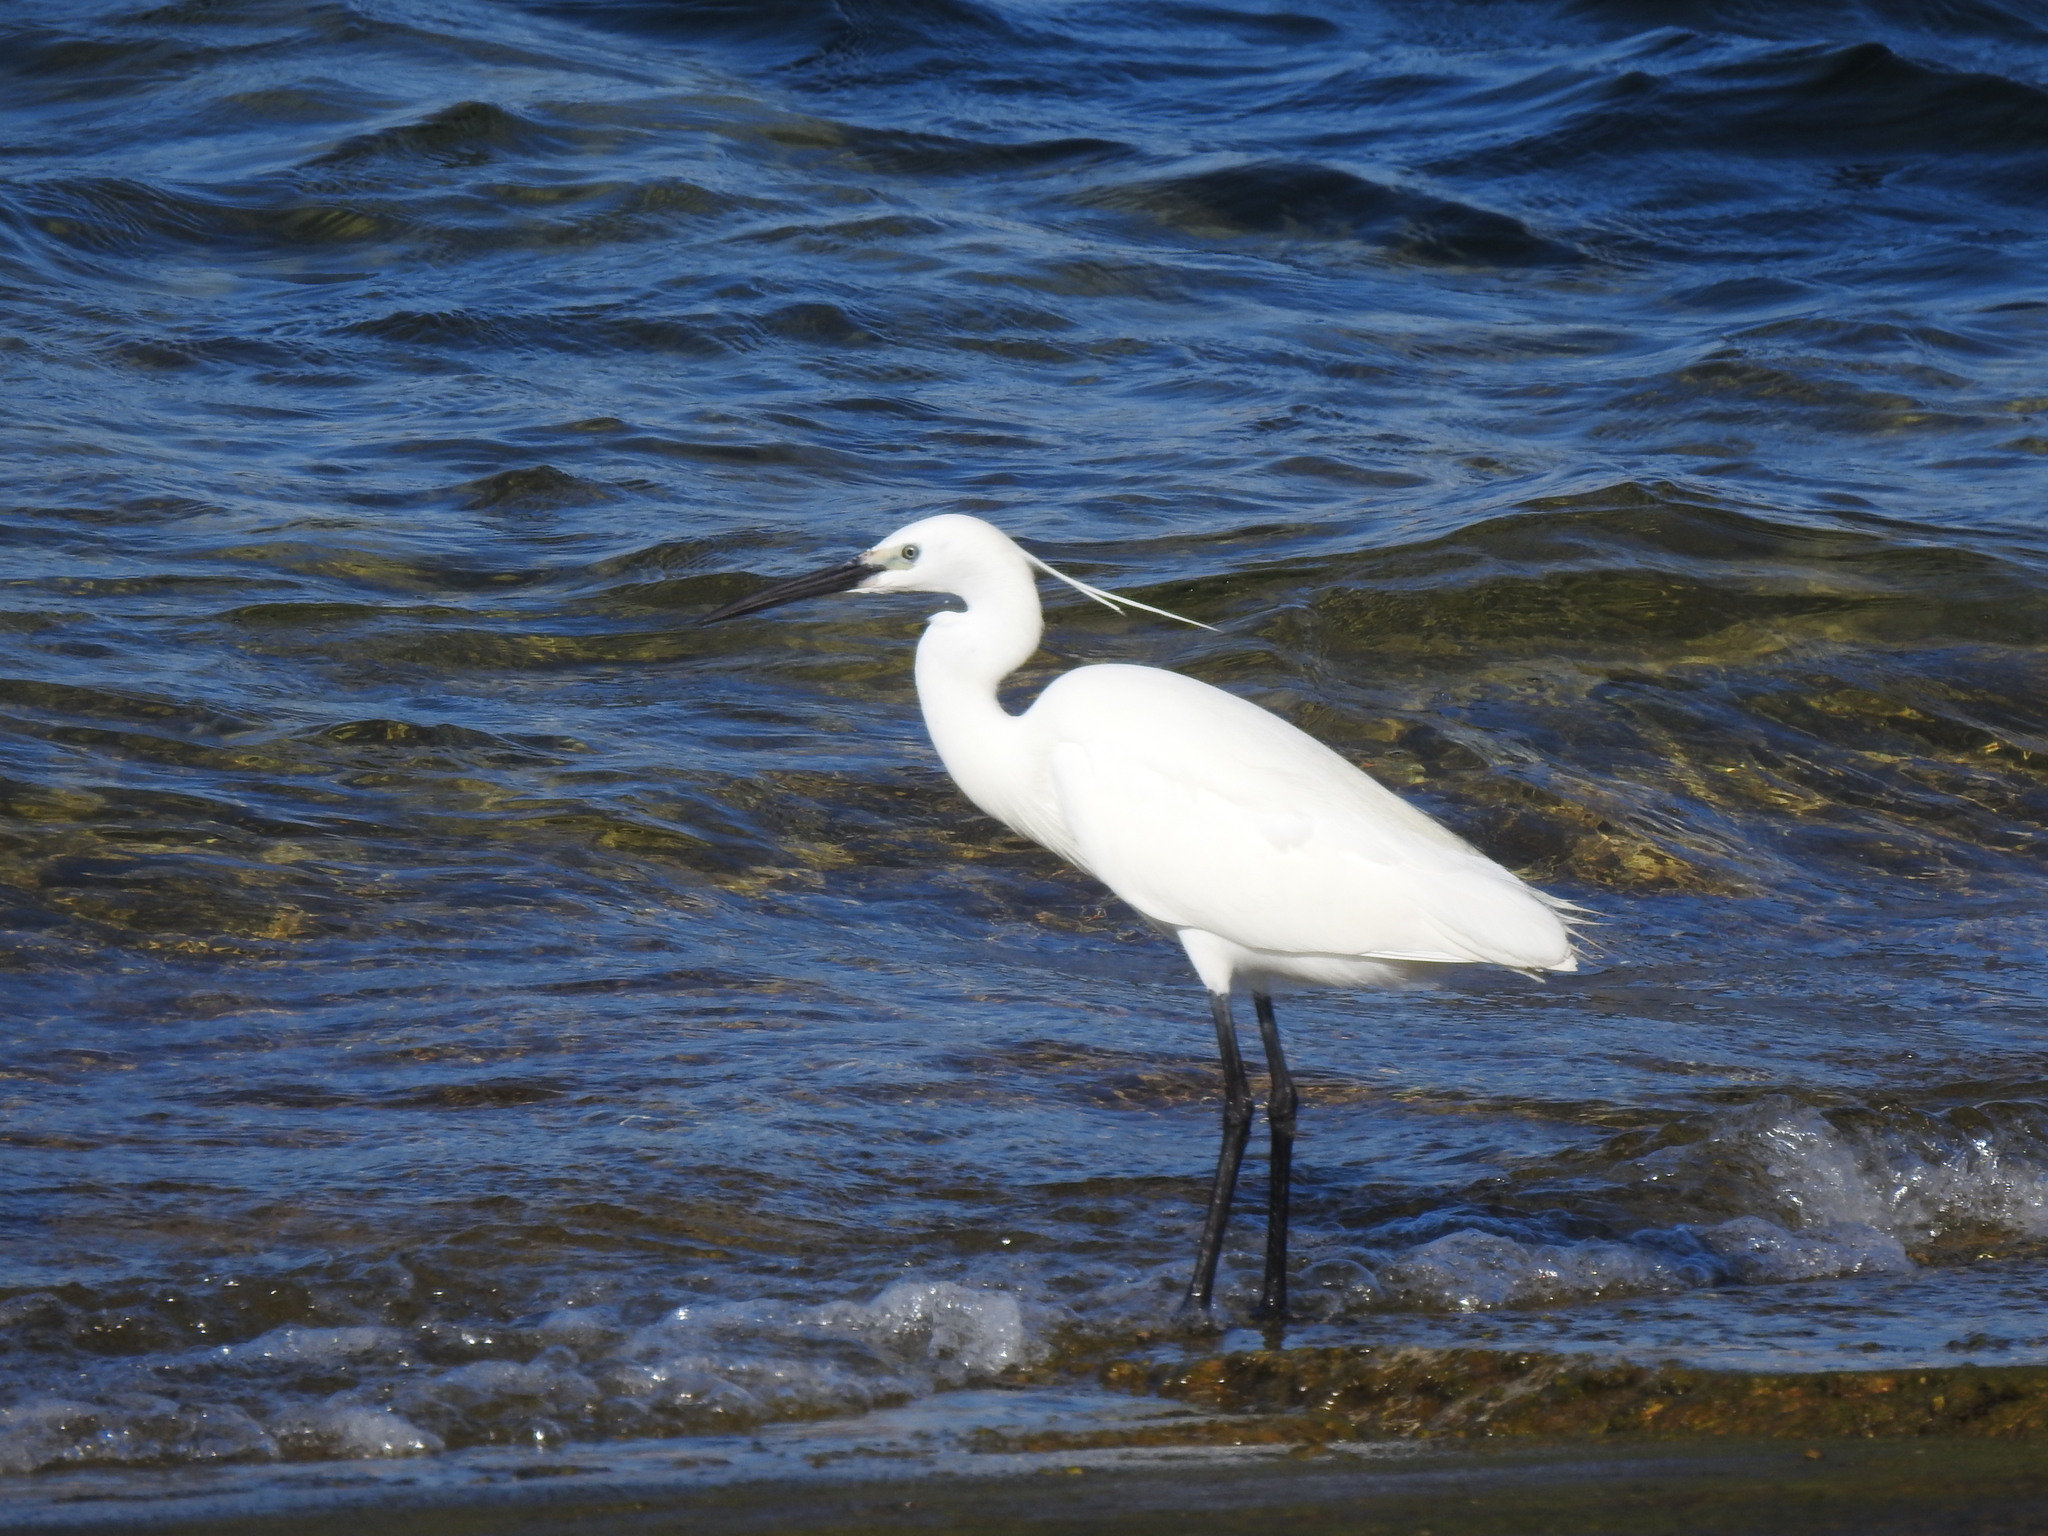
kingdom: Animalia
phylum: Chordata
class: Aves
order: Pelecaniformes
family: Ardeidae
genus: Egretta
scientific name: Egretta garzetta
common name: Little egret
